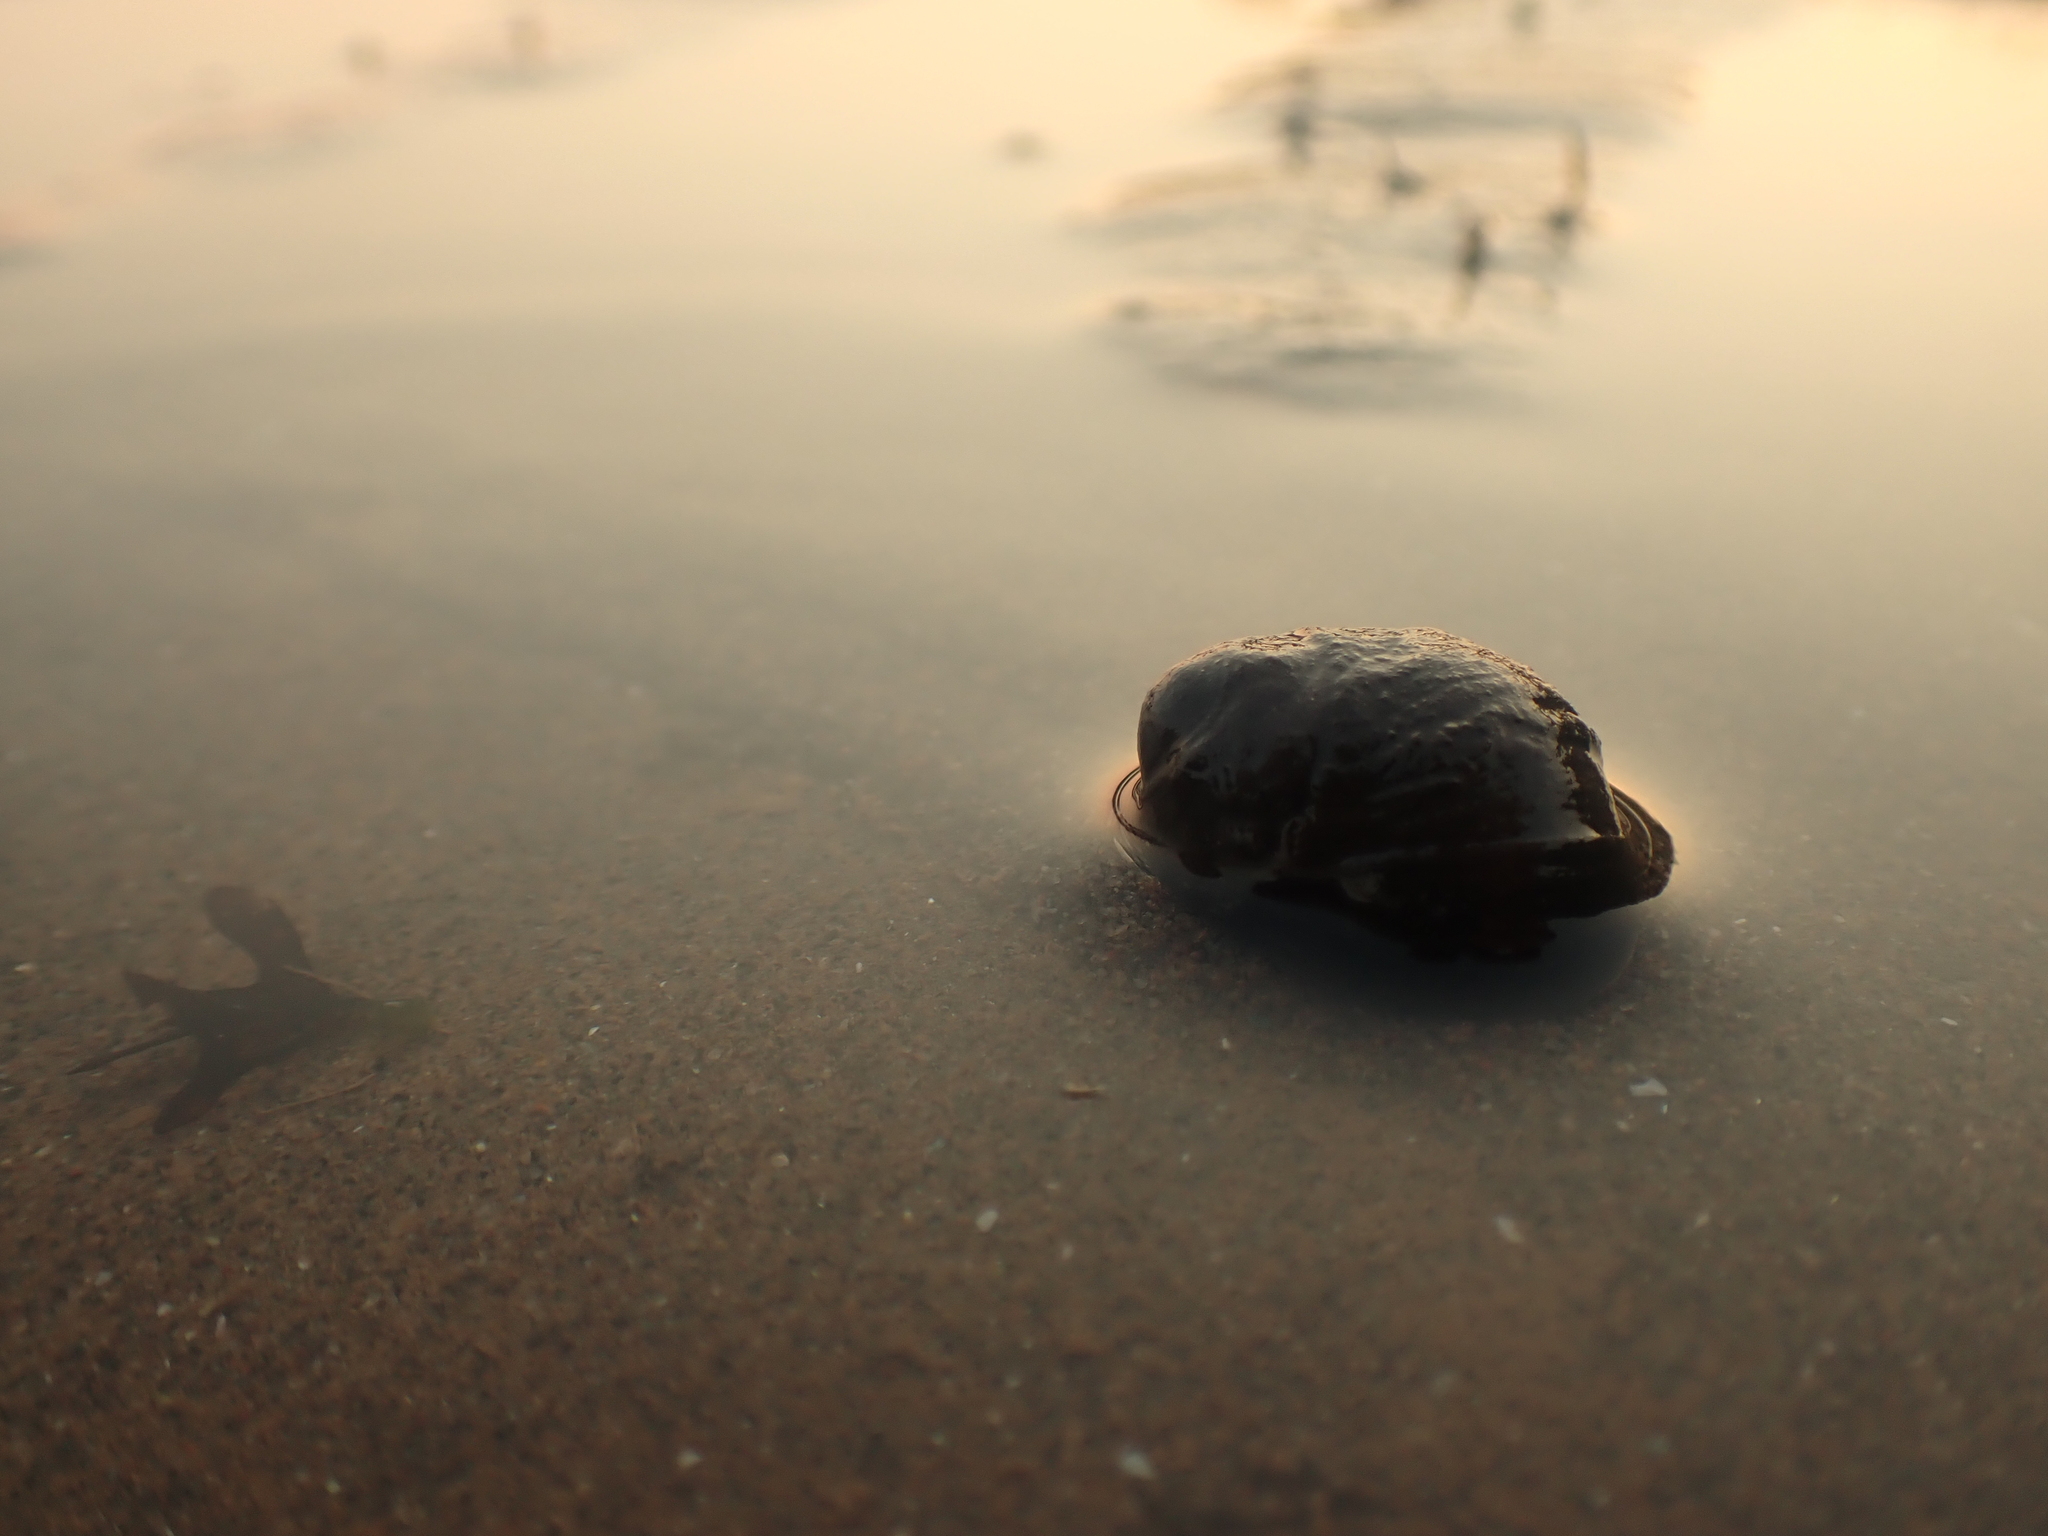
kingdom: Animalia
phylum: Mollusca
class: Gastropoda
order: Littorinimorpha
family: Littorinidae
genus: Littorina
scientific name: Littorina littorea
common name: Common periwinkle
